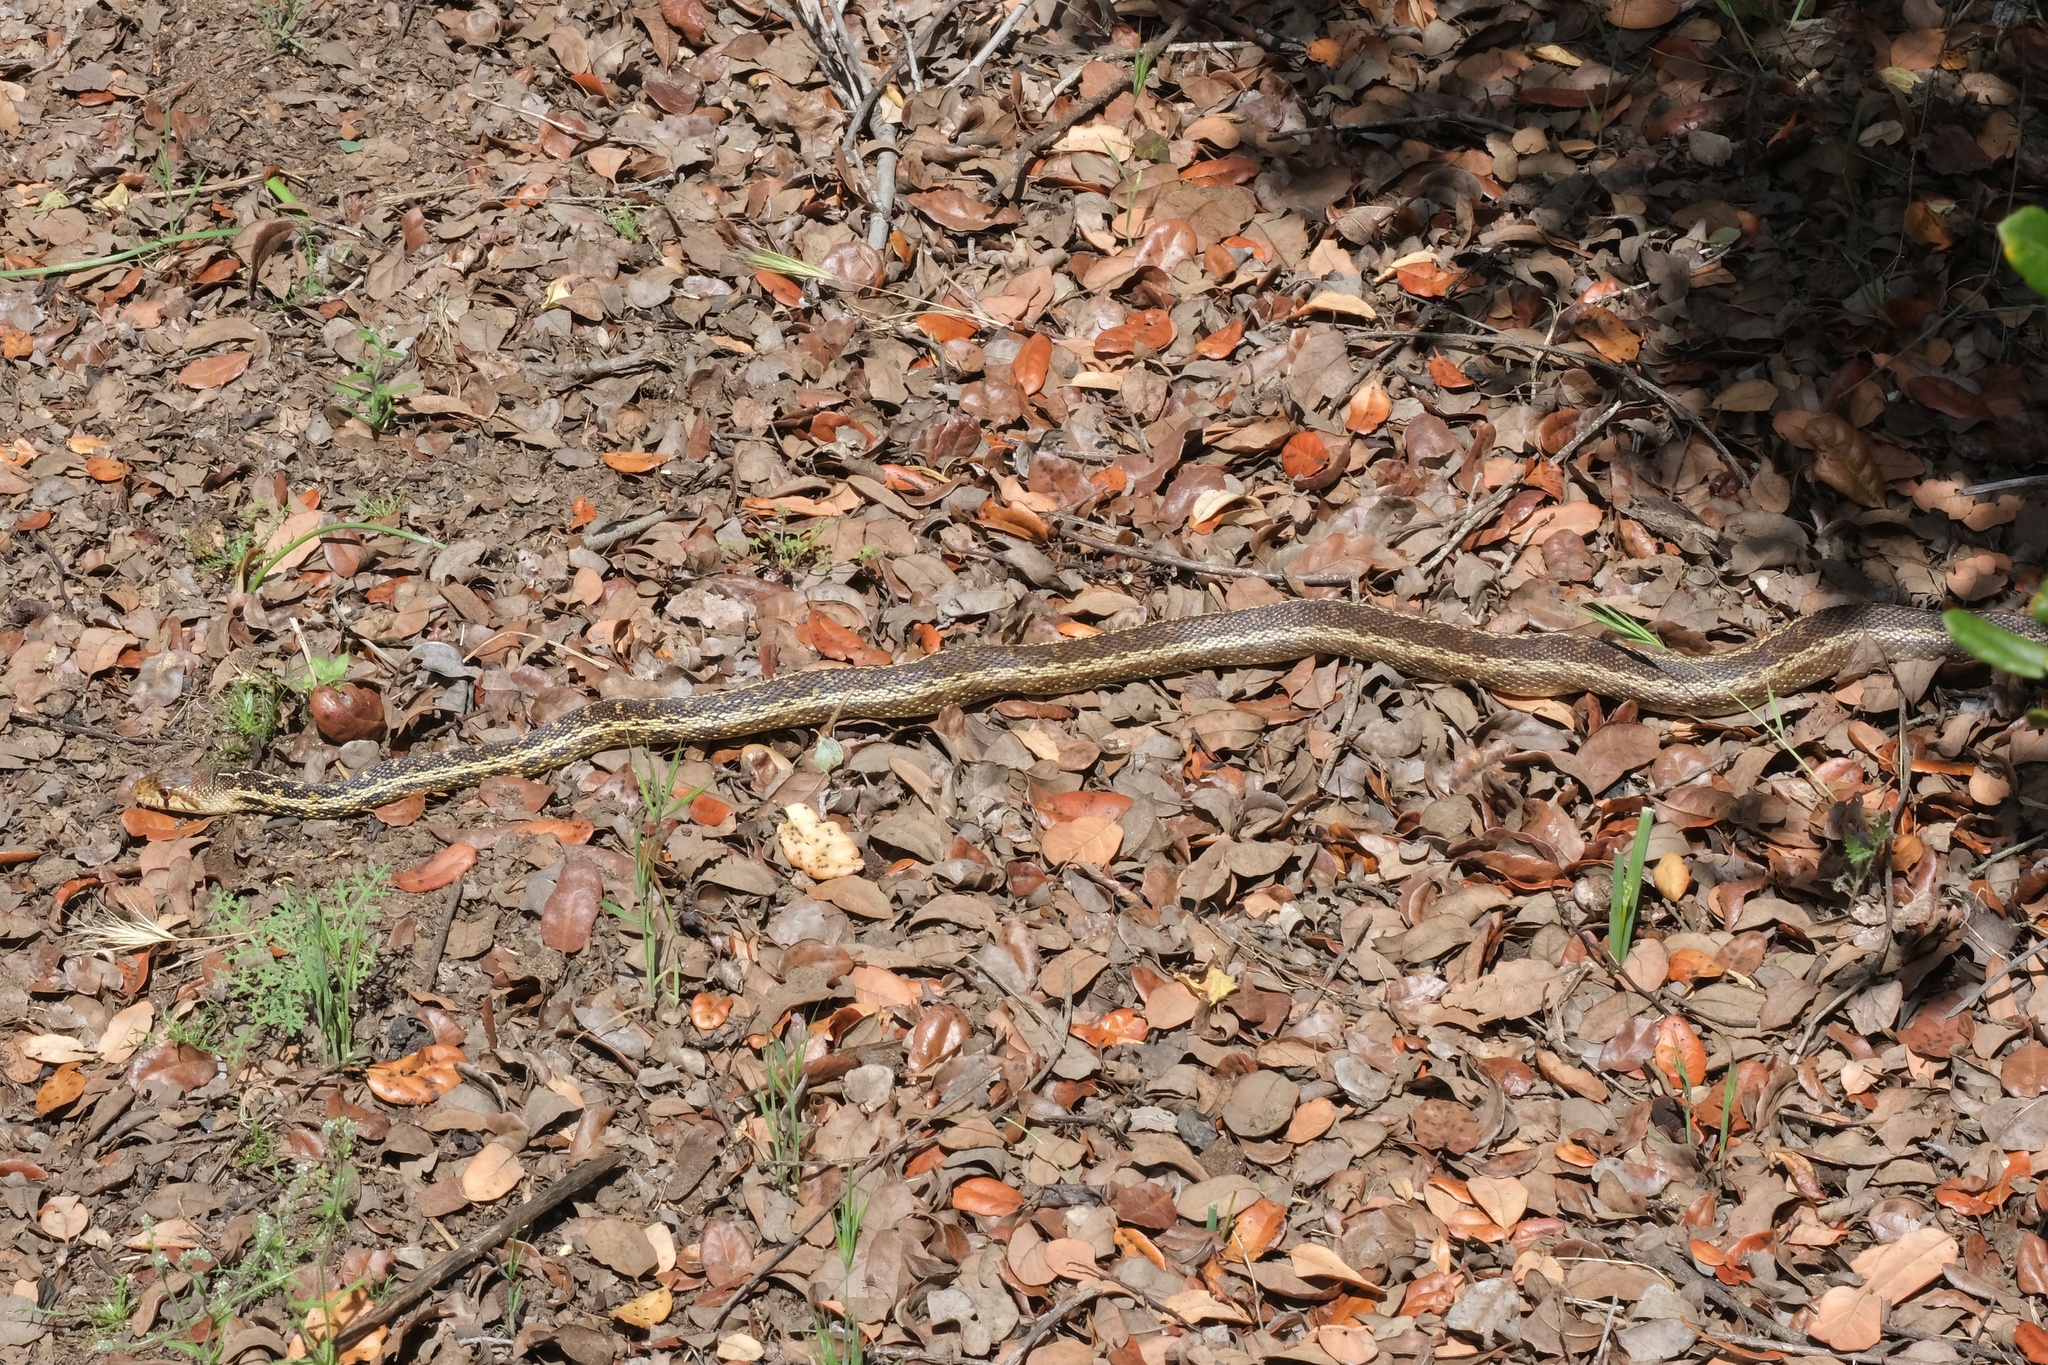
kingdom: Animalia
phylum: Chordata
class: Squamata
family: Colubridae
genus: Pituophis
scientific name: Pituophis catenifer
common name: Gopher snake
